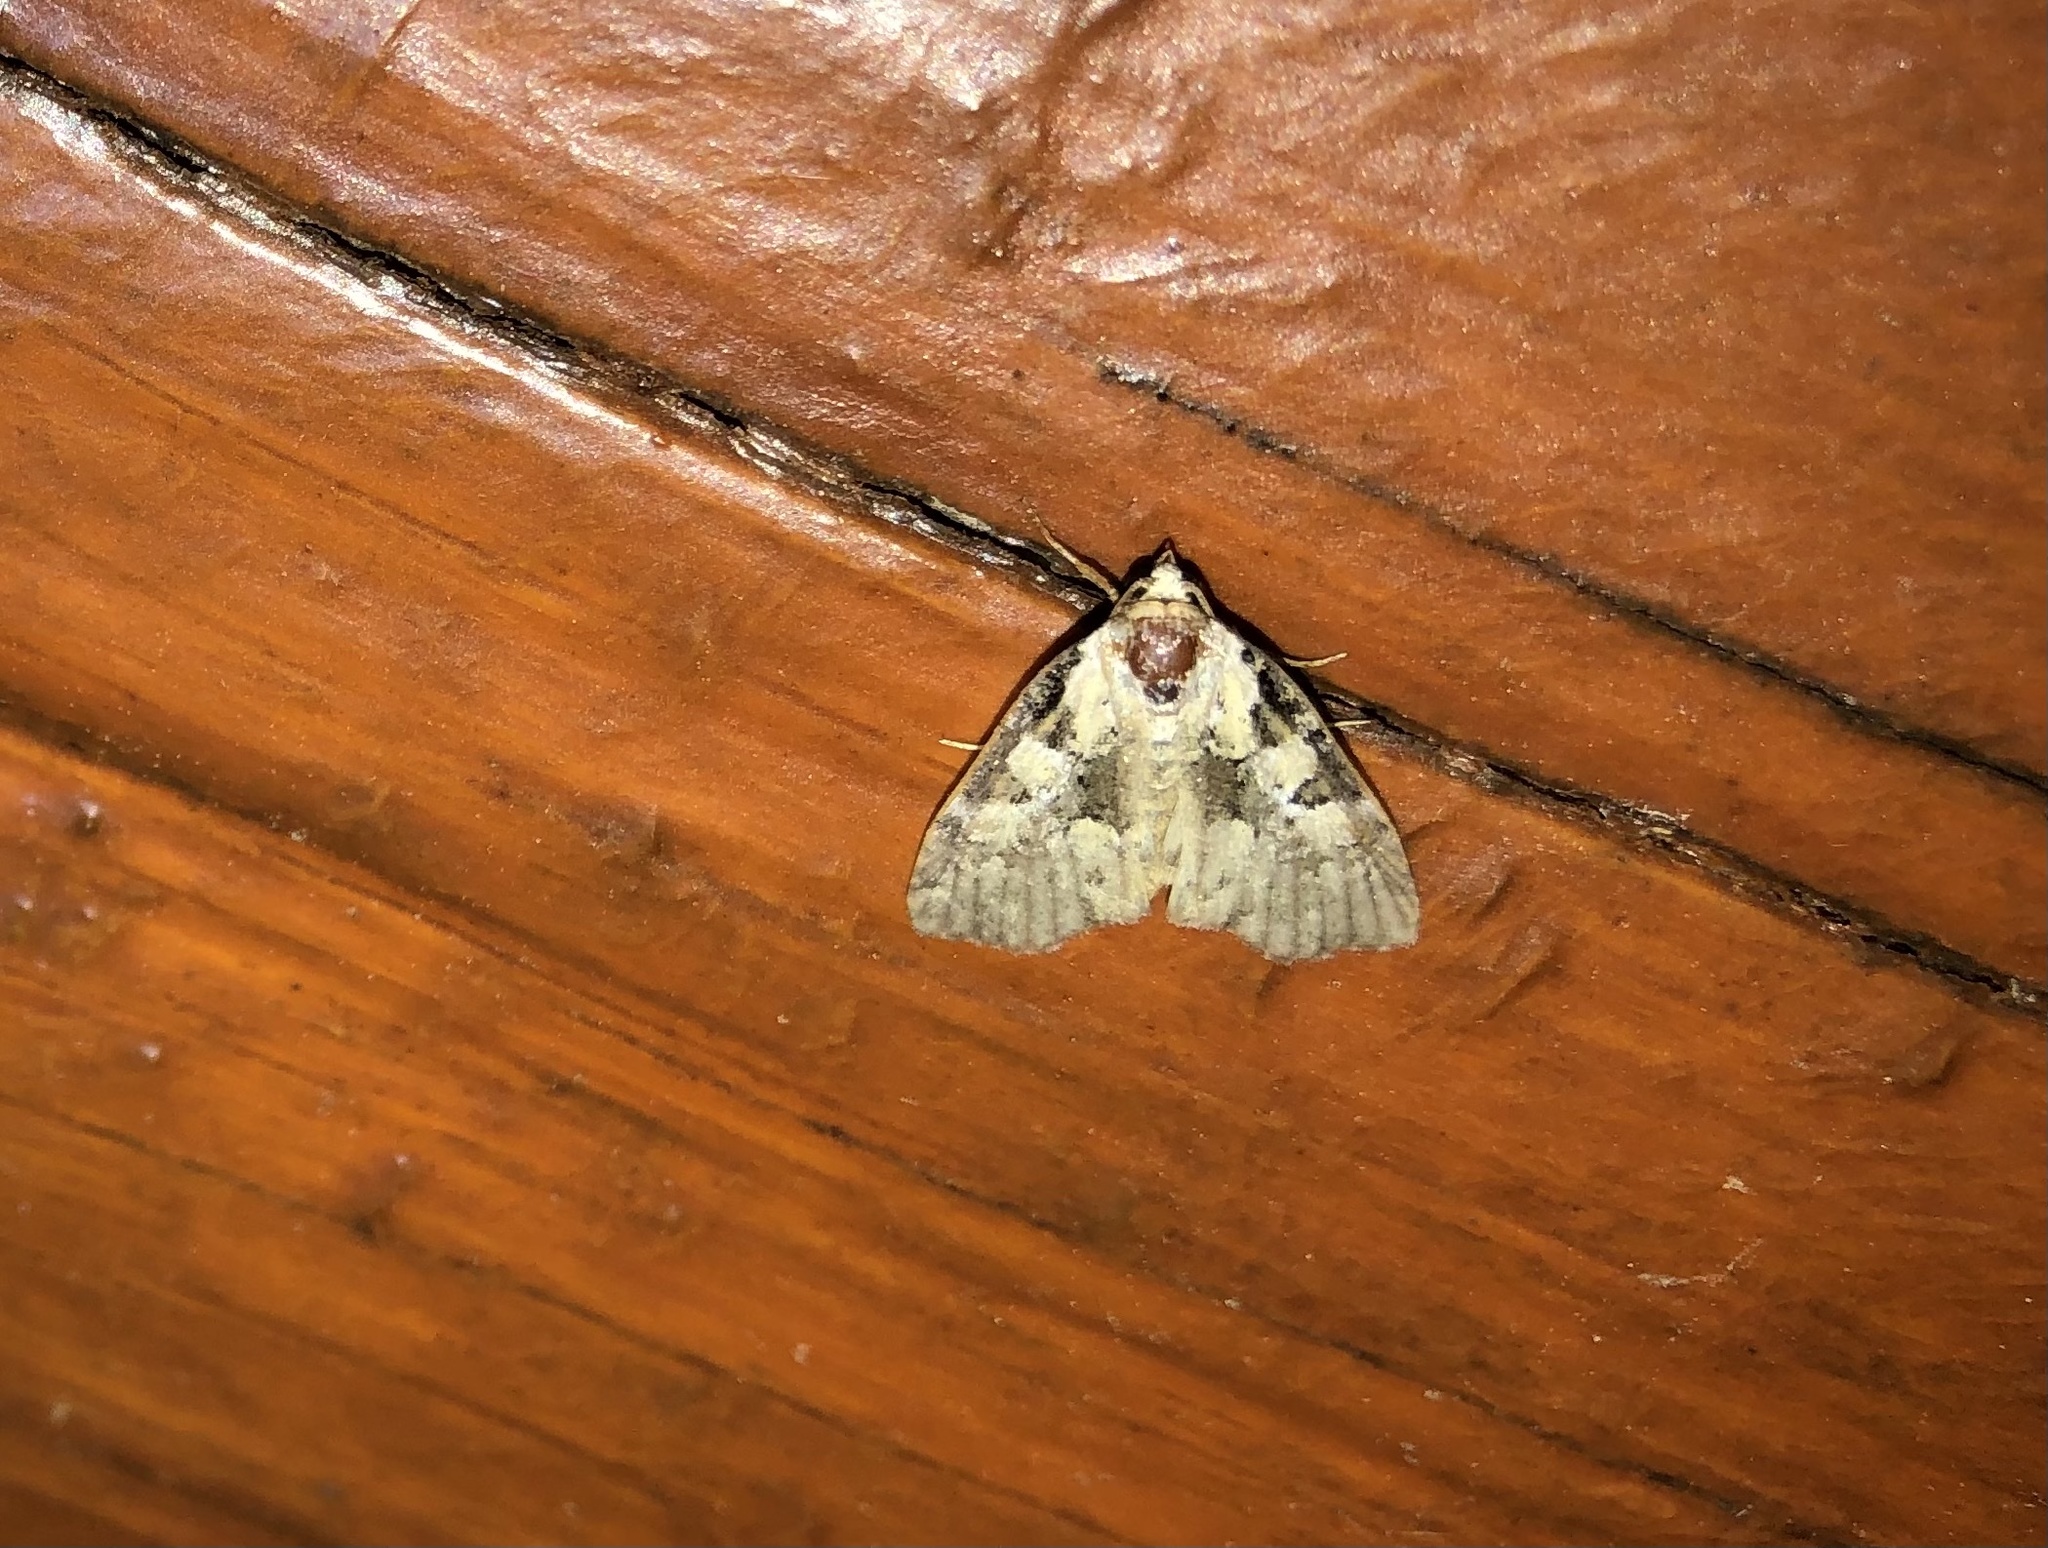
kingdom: Animalia
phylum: Arthropoda
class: Insecta
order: Lepidoptera
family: Noctuidae
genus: Leuconycta
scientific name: Leuconycta lepidula
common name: Marbled-green leuconycta moth
